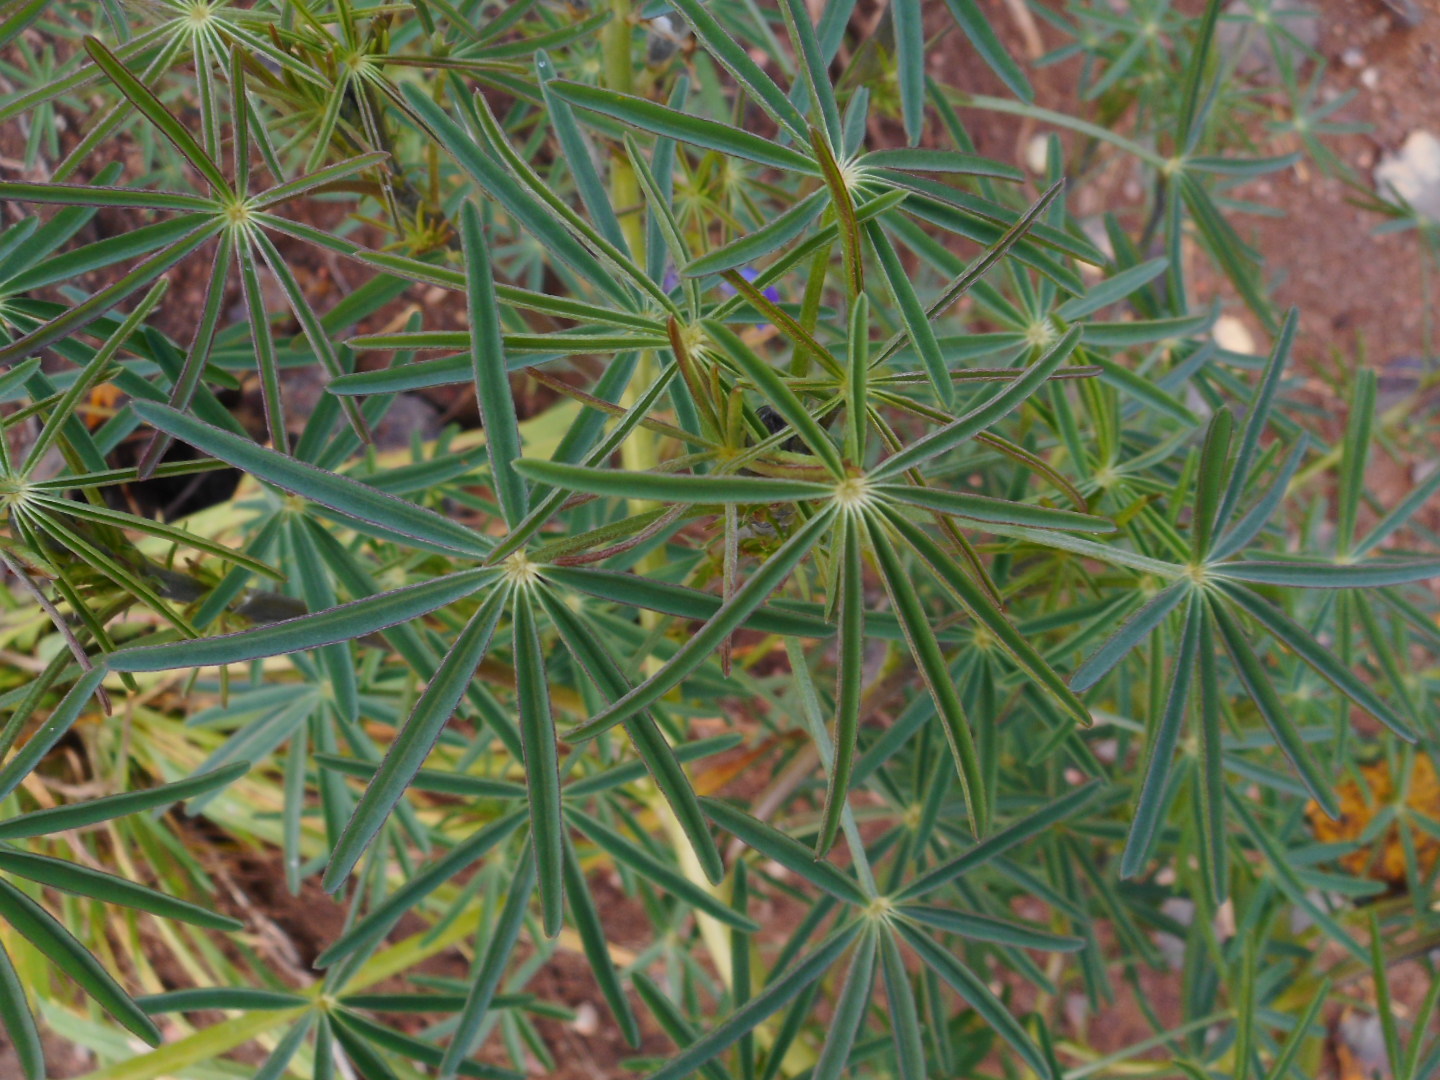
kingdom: Plantae
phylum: Tracheophyta
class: Magnoliopsida
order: Fabales
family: Fabaceae
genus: Lupinus
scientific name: Lupinus angustifolius
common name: Narrow-leaved lupin
